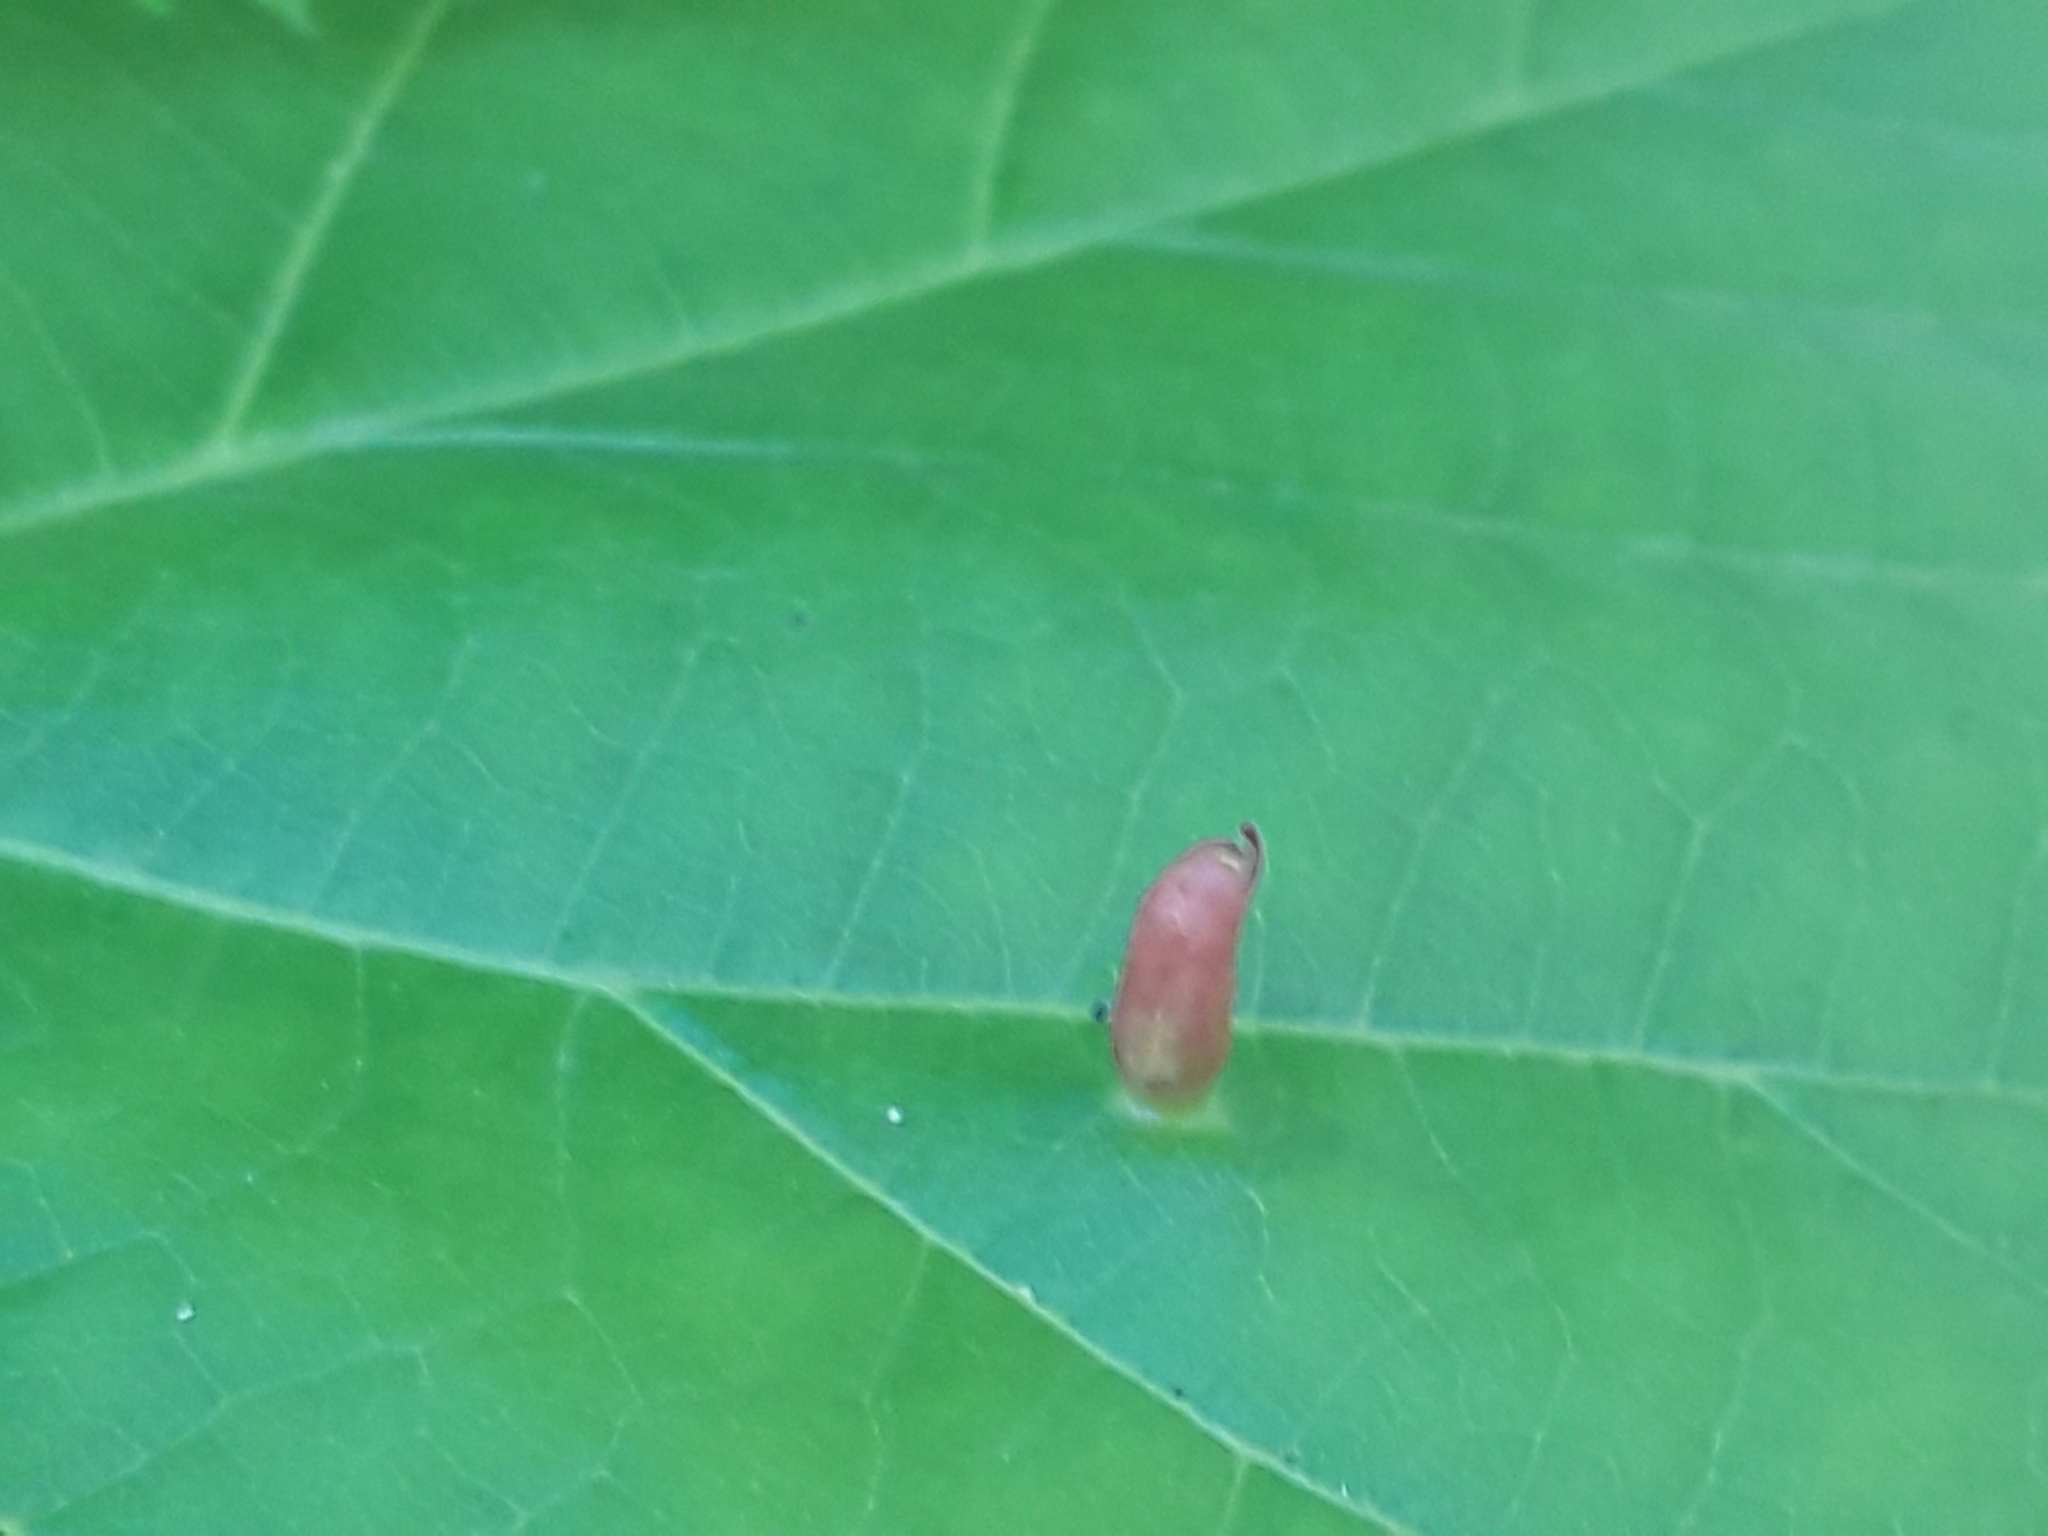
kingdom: Animalia
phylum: Arthropoda
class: Arachnida
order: Trombidiformes
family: Eriophyidae
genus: Eriophyes
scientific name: Eriophyes tiliae
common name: Red nail gall mite
